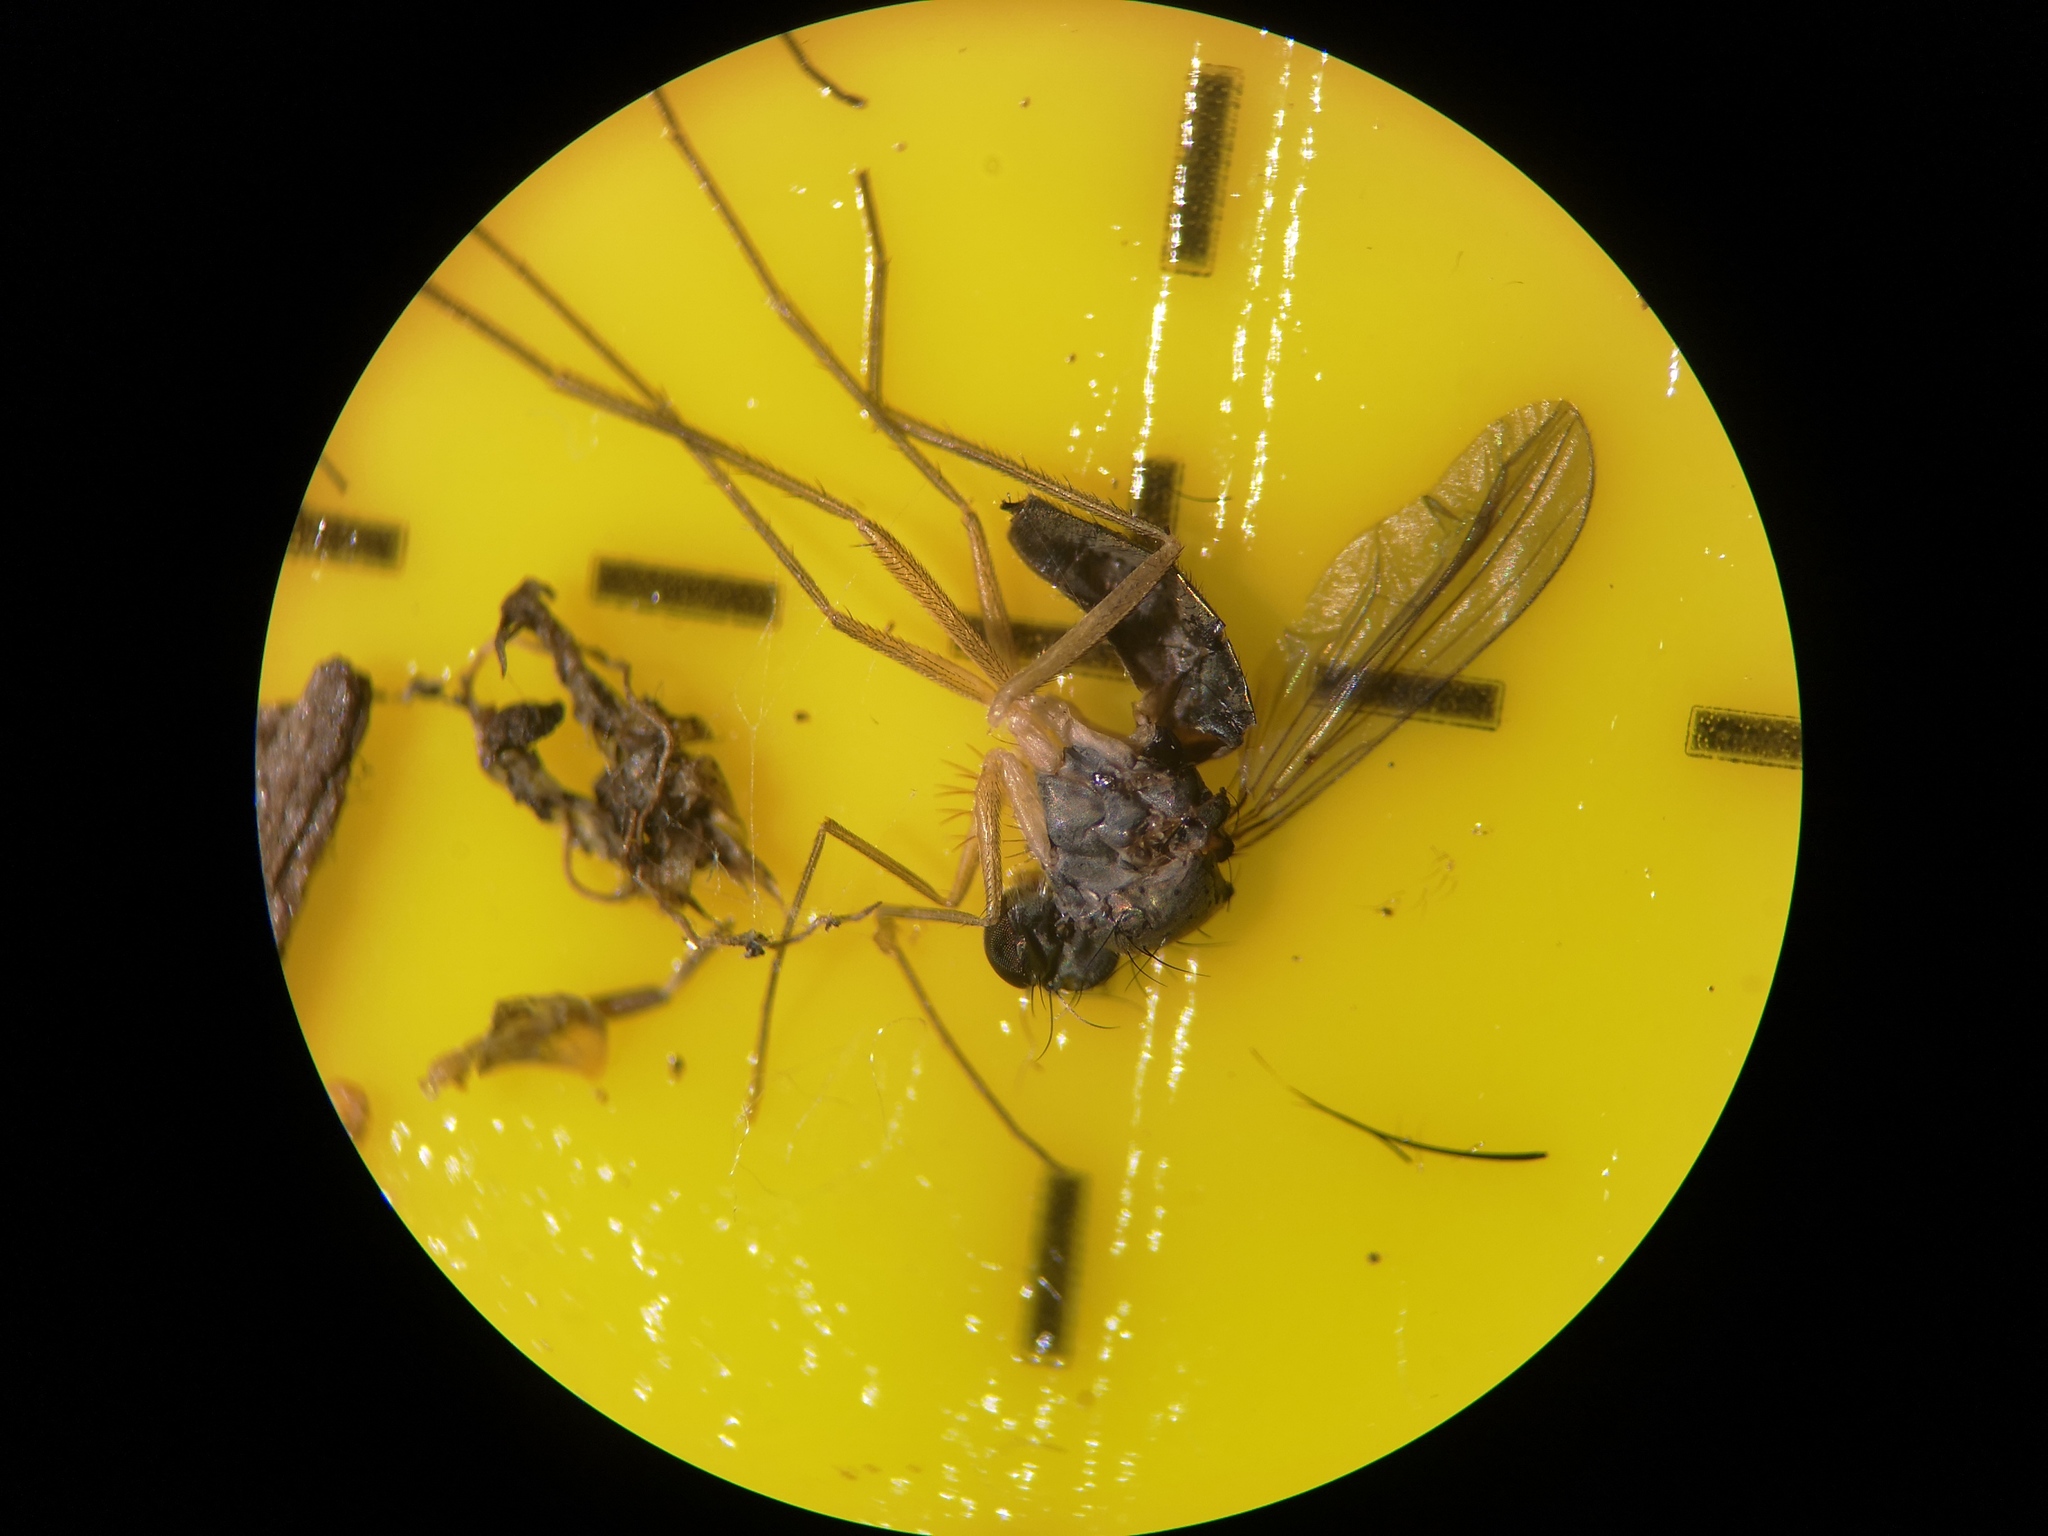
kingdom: Animalia
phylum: Arthropoda
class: Insecta
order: Diptera
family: Dolichopodidae
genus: Sciapus
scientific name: Sciapus platypterus
